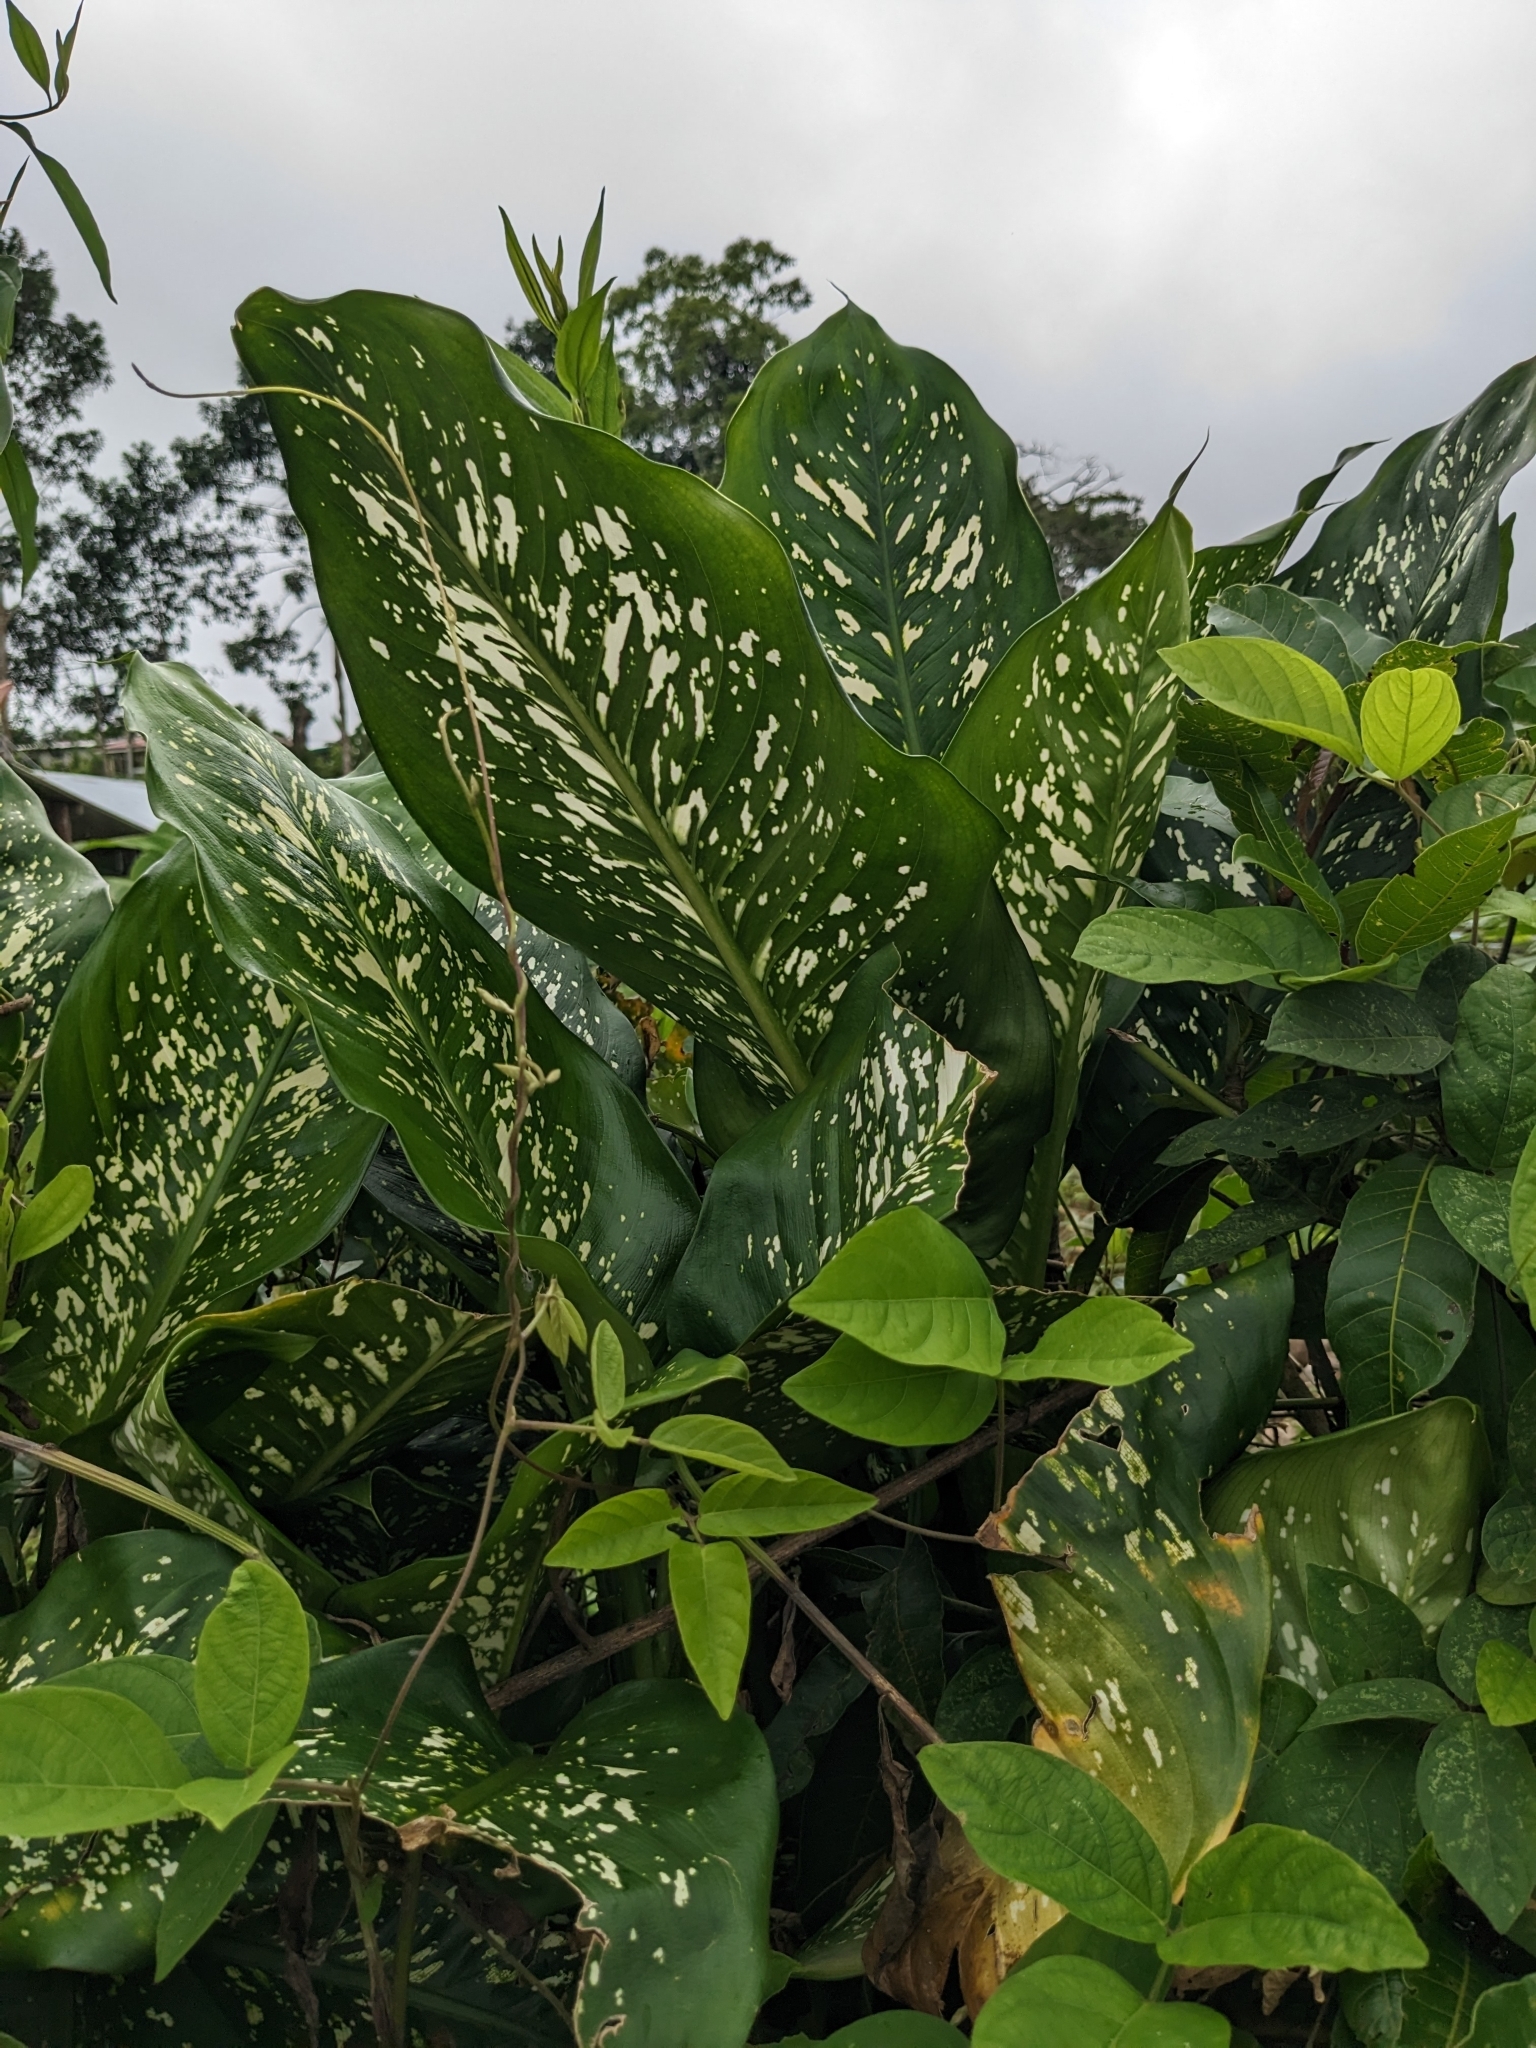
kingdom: Plantae
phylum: Tracheophyta
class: Liliopsida
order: Alismatales
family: Araceae
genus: Dieffenbachia
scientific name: Dieffenbachia seguine
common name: Dumbcane
